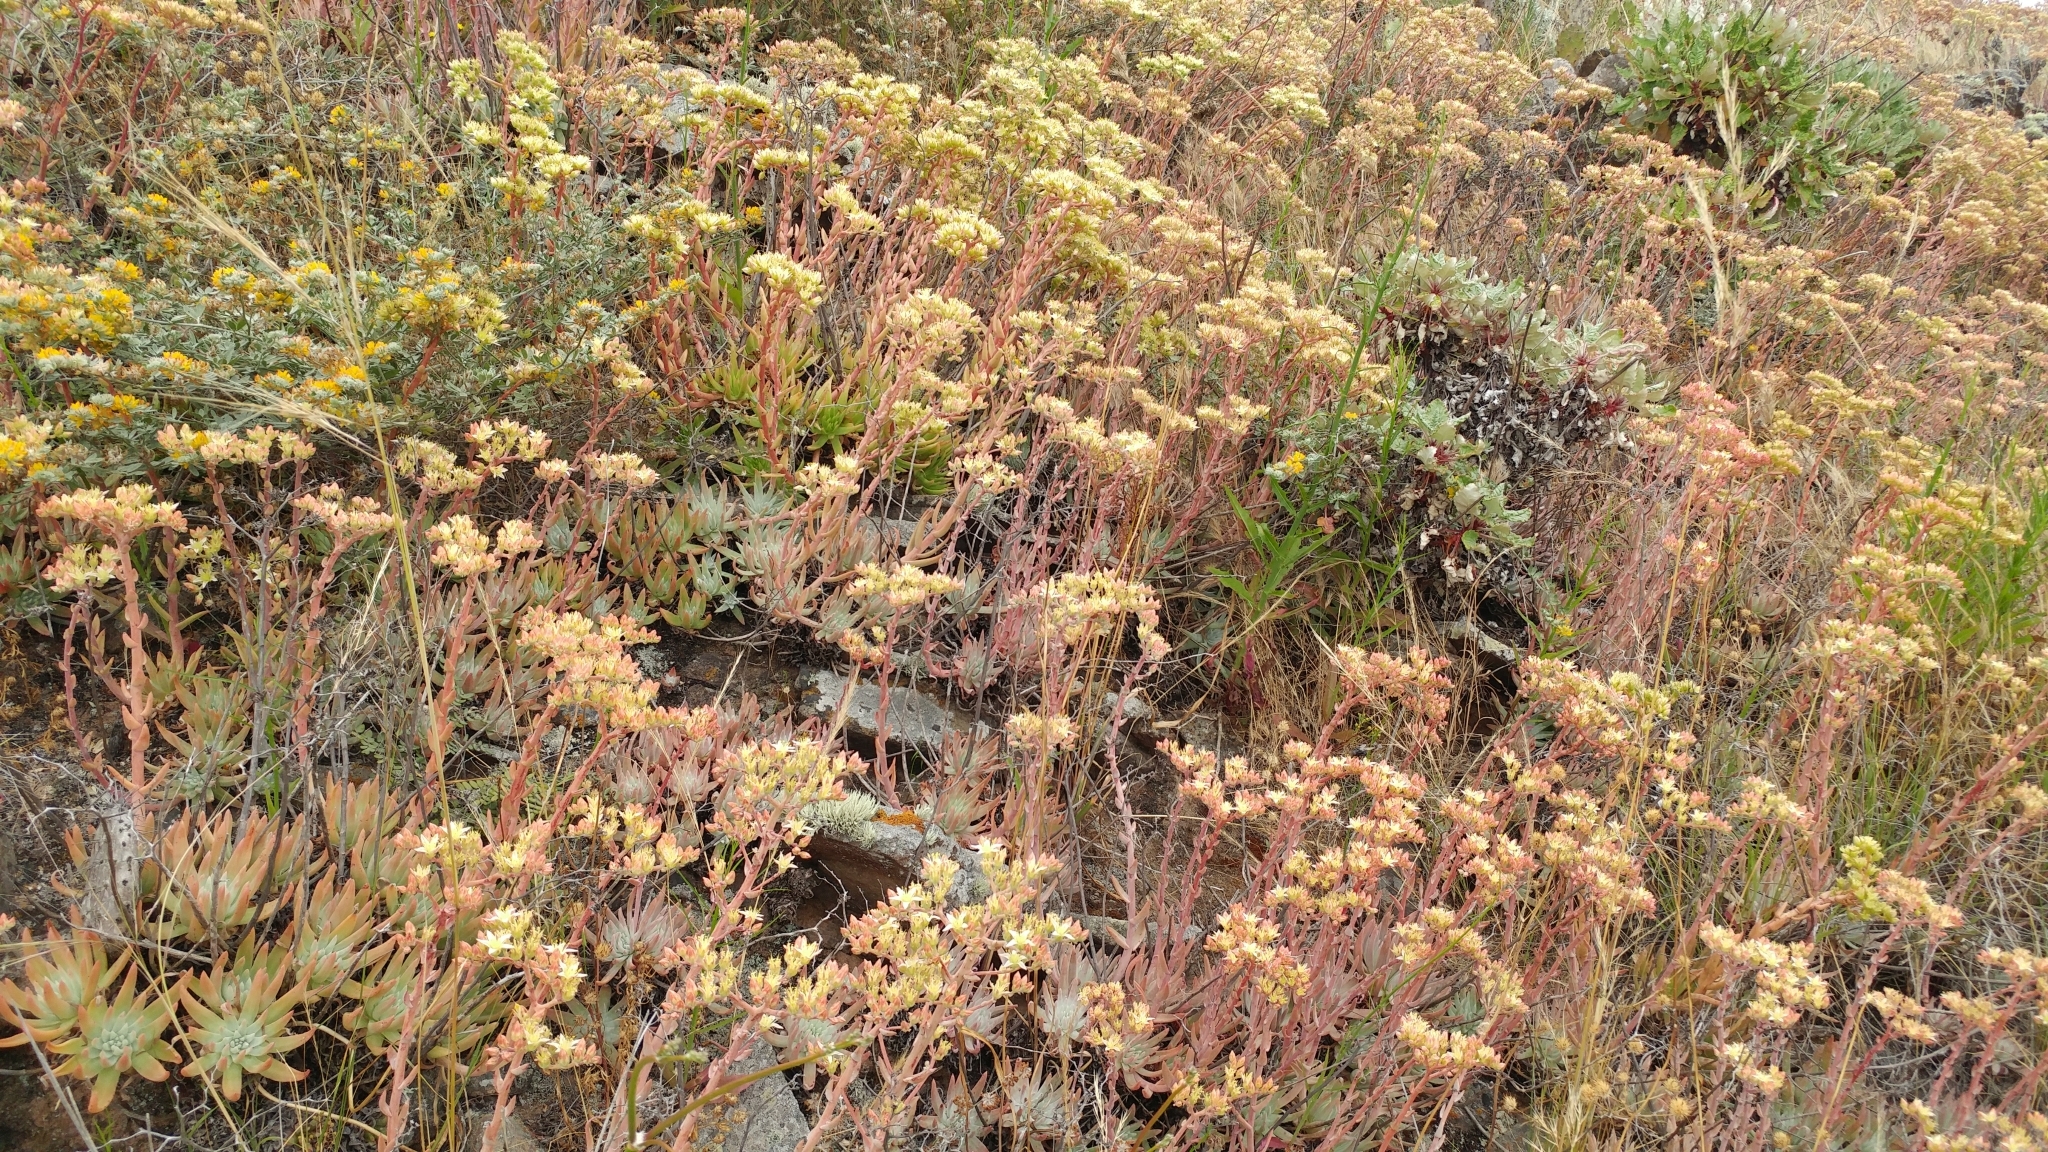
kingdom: Plantae
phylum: Tracheophyta
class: Magnoliopsida
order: Saxifragales
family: Crassulaceae
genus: Dudleya
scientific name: Dudleya virens
